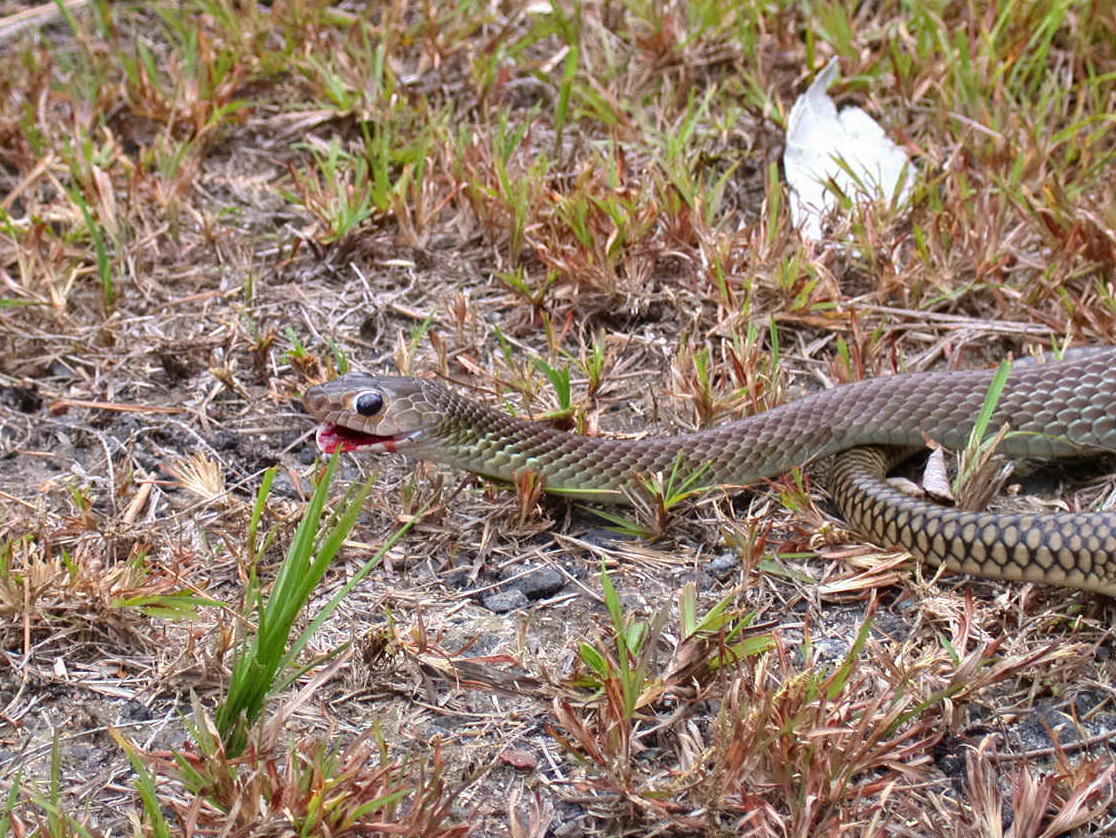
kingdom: Animalia
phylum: Chordata
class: Squamata
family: Colubridae
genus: Ptyas
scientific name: Ptyas korros
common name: Indo-chinese rat snake
